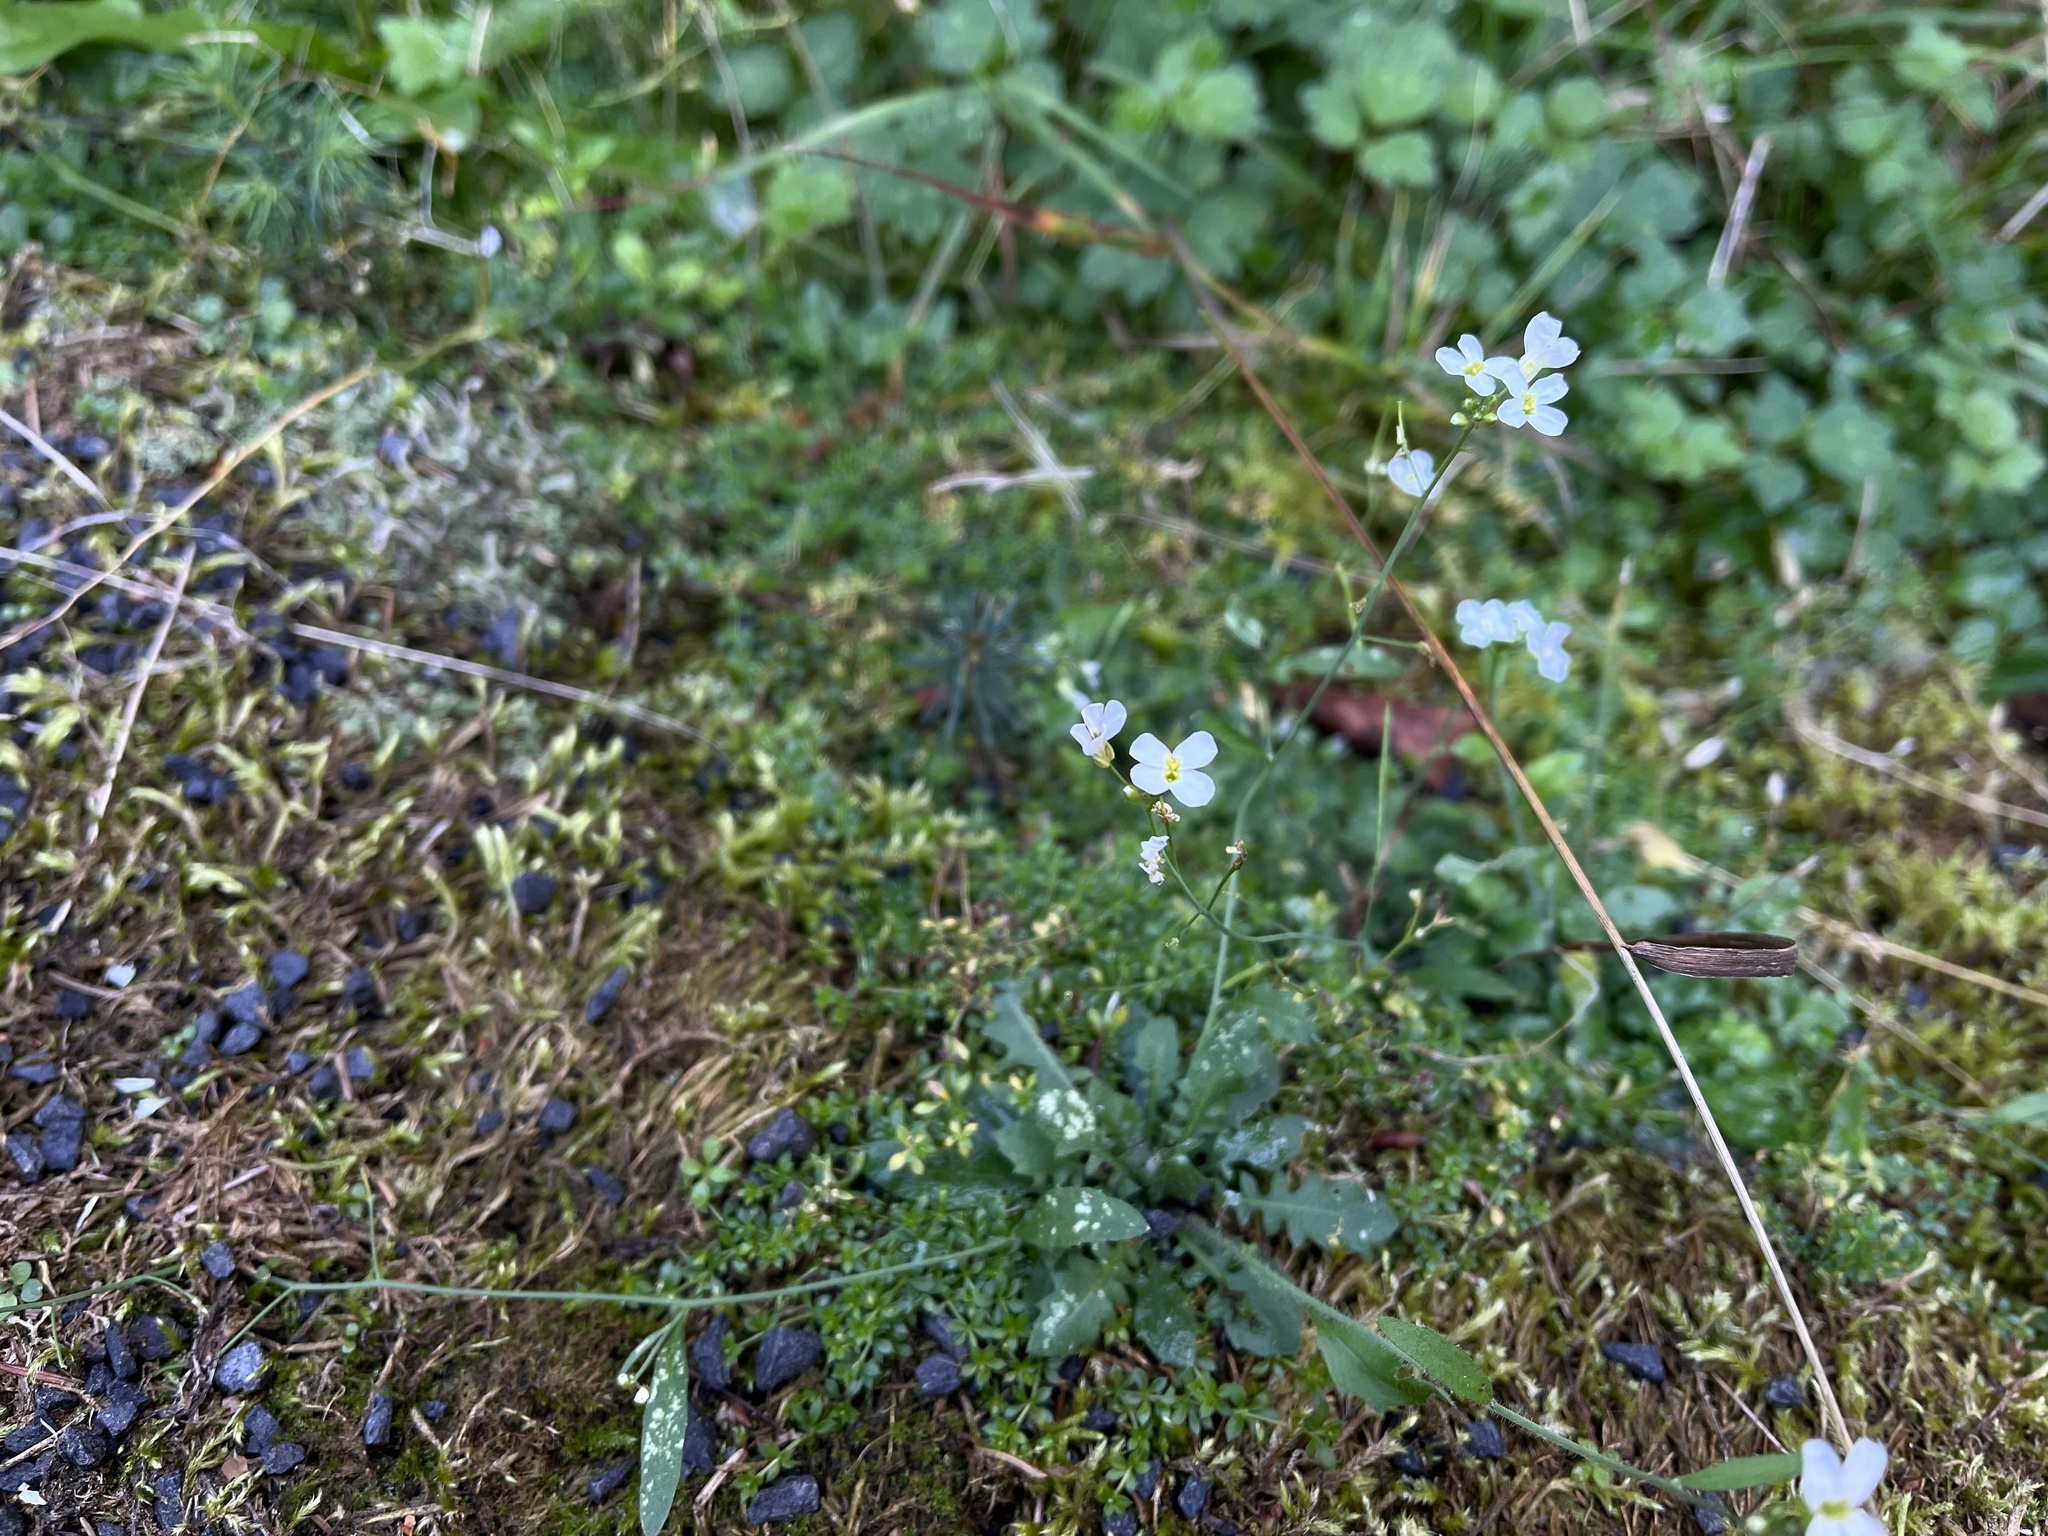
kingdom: Plantae
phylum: Tracheophyta
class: Magnoliopsida
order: Brassicales
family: Brassicaceae
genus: Arabidopsis
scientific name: Arabidopsis arenosa
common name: Sand rock-cress
